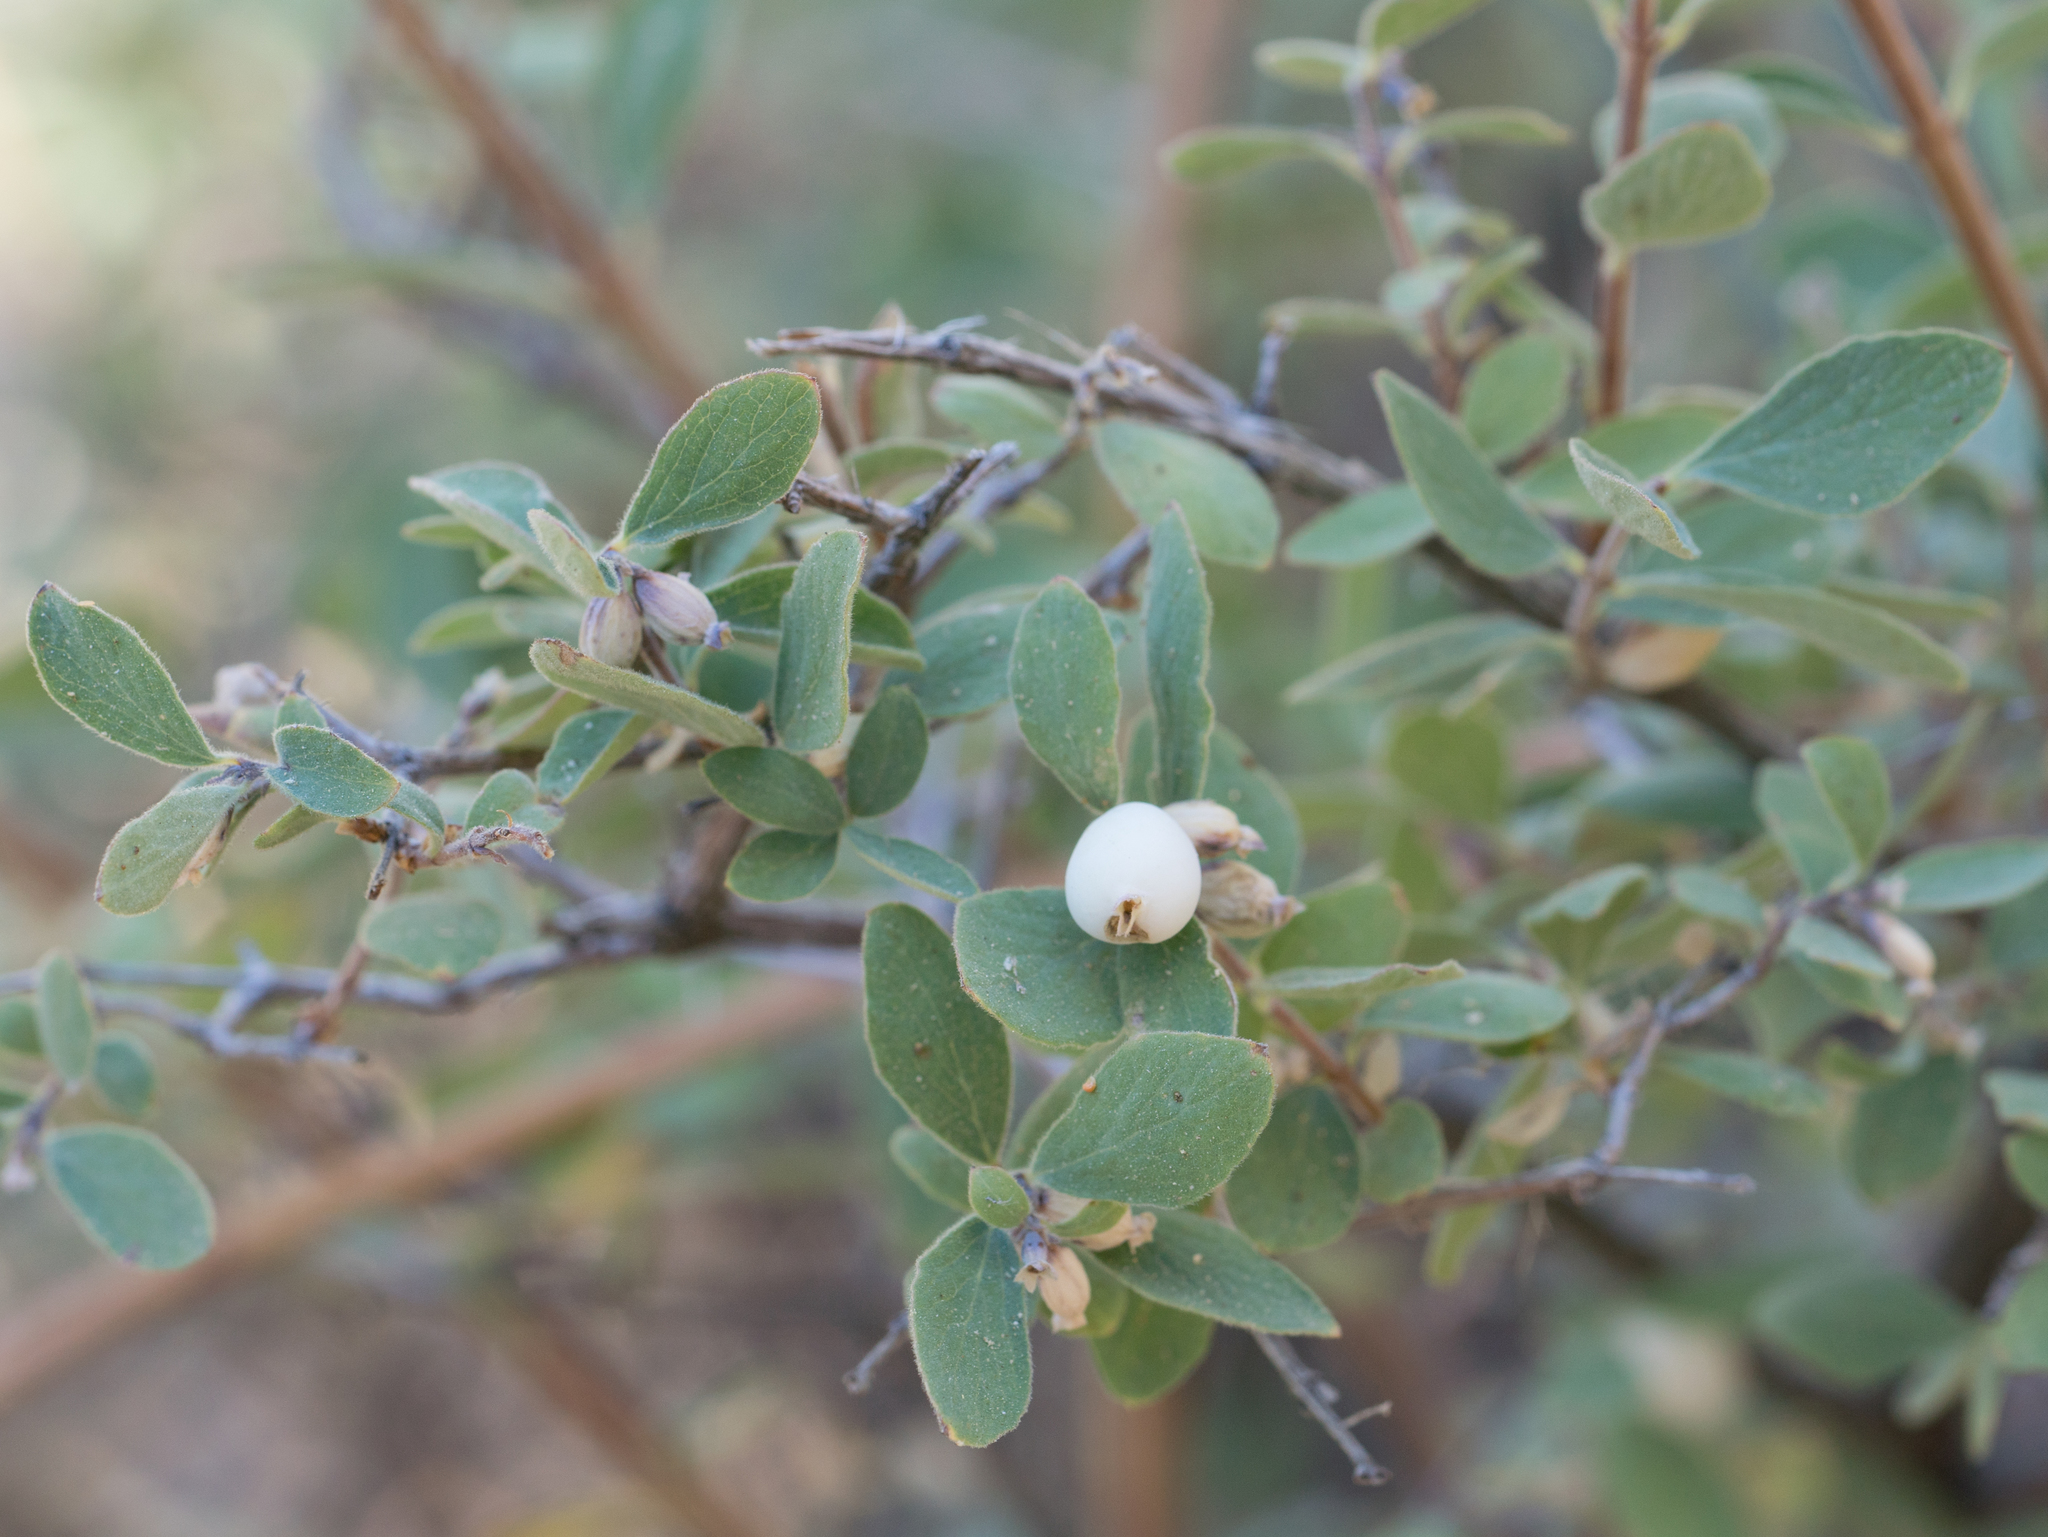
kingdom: Plantae
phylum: Tracheophyta
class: Magnoliopsida
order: Dipsacales
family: Caprifoliaceae
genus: Symphoricarpos
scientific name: Symphoricarpos mollis
